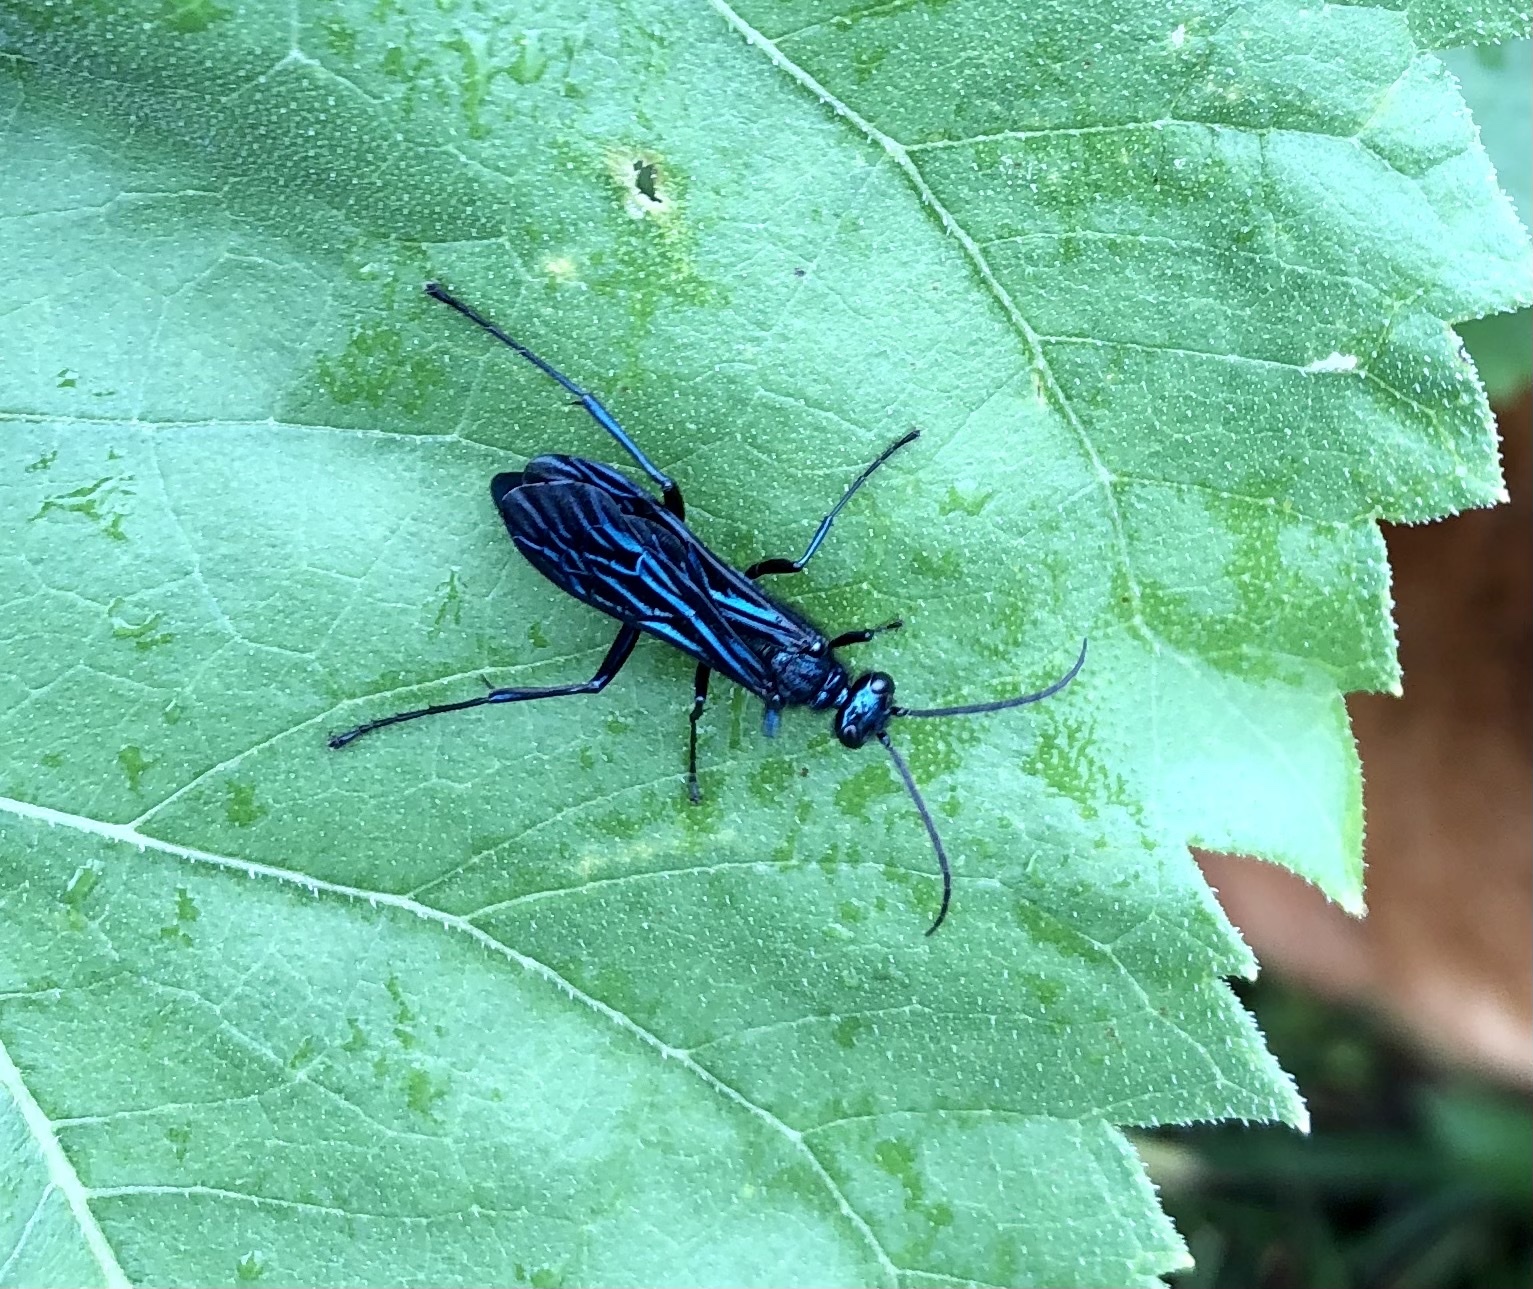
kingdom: Animalia
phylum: Arthropoda
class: Insecta
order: Hymenoptera
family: Sphecidae
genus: Chalybion
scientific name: Chalybion californicum
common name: Mud dauber
